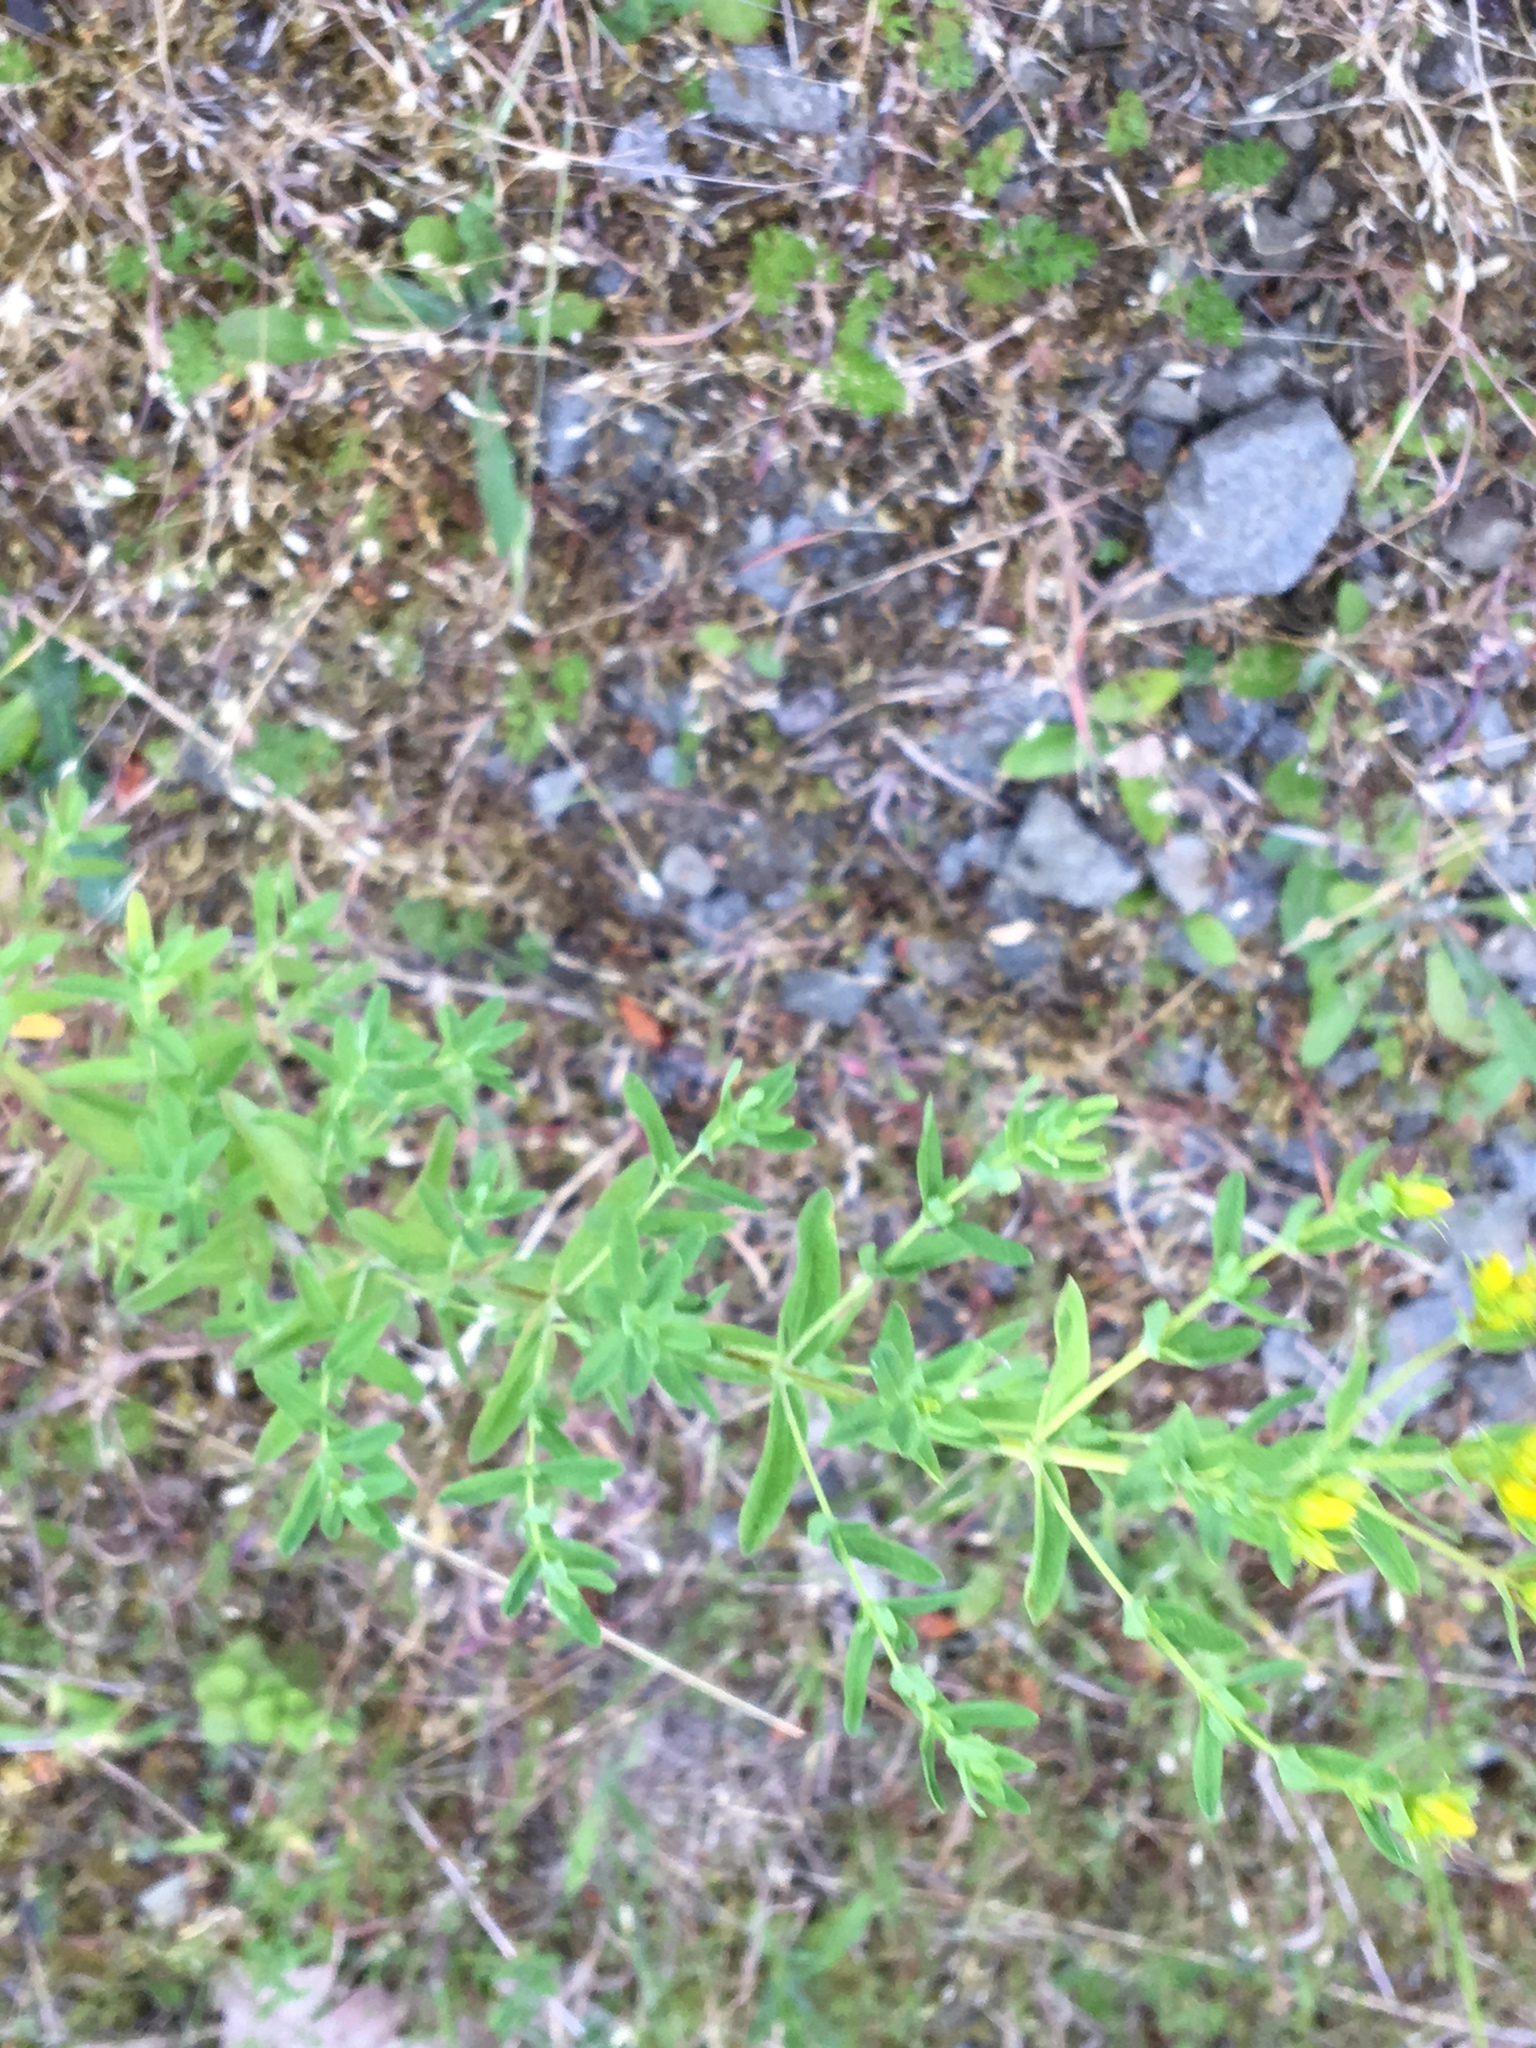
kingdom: Plantae
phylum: Tracheophyta
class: Magnoliopsida
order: Malpighiales
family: Hypericaceae
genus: Hypericum
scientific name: Hypericum perforatum
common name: Common st. johnswort
